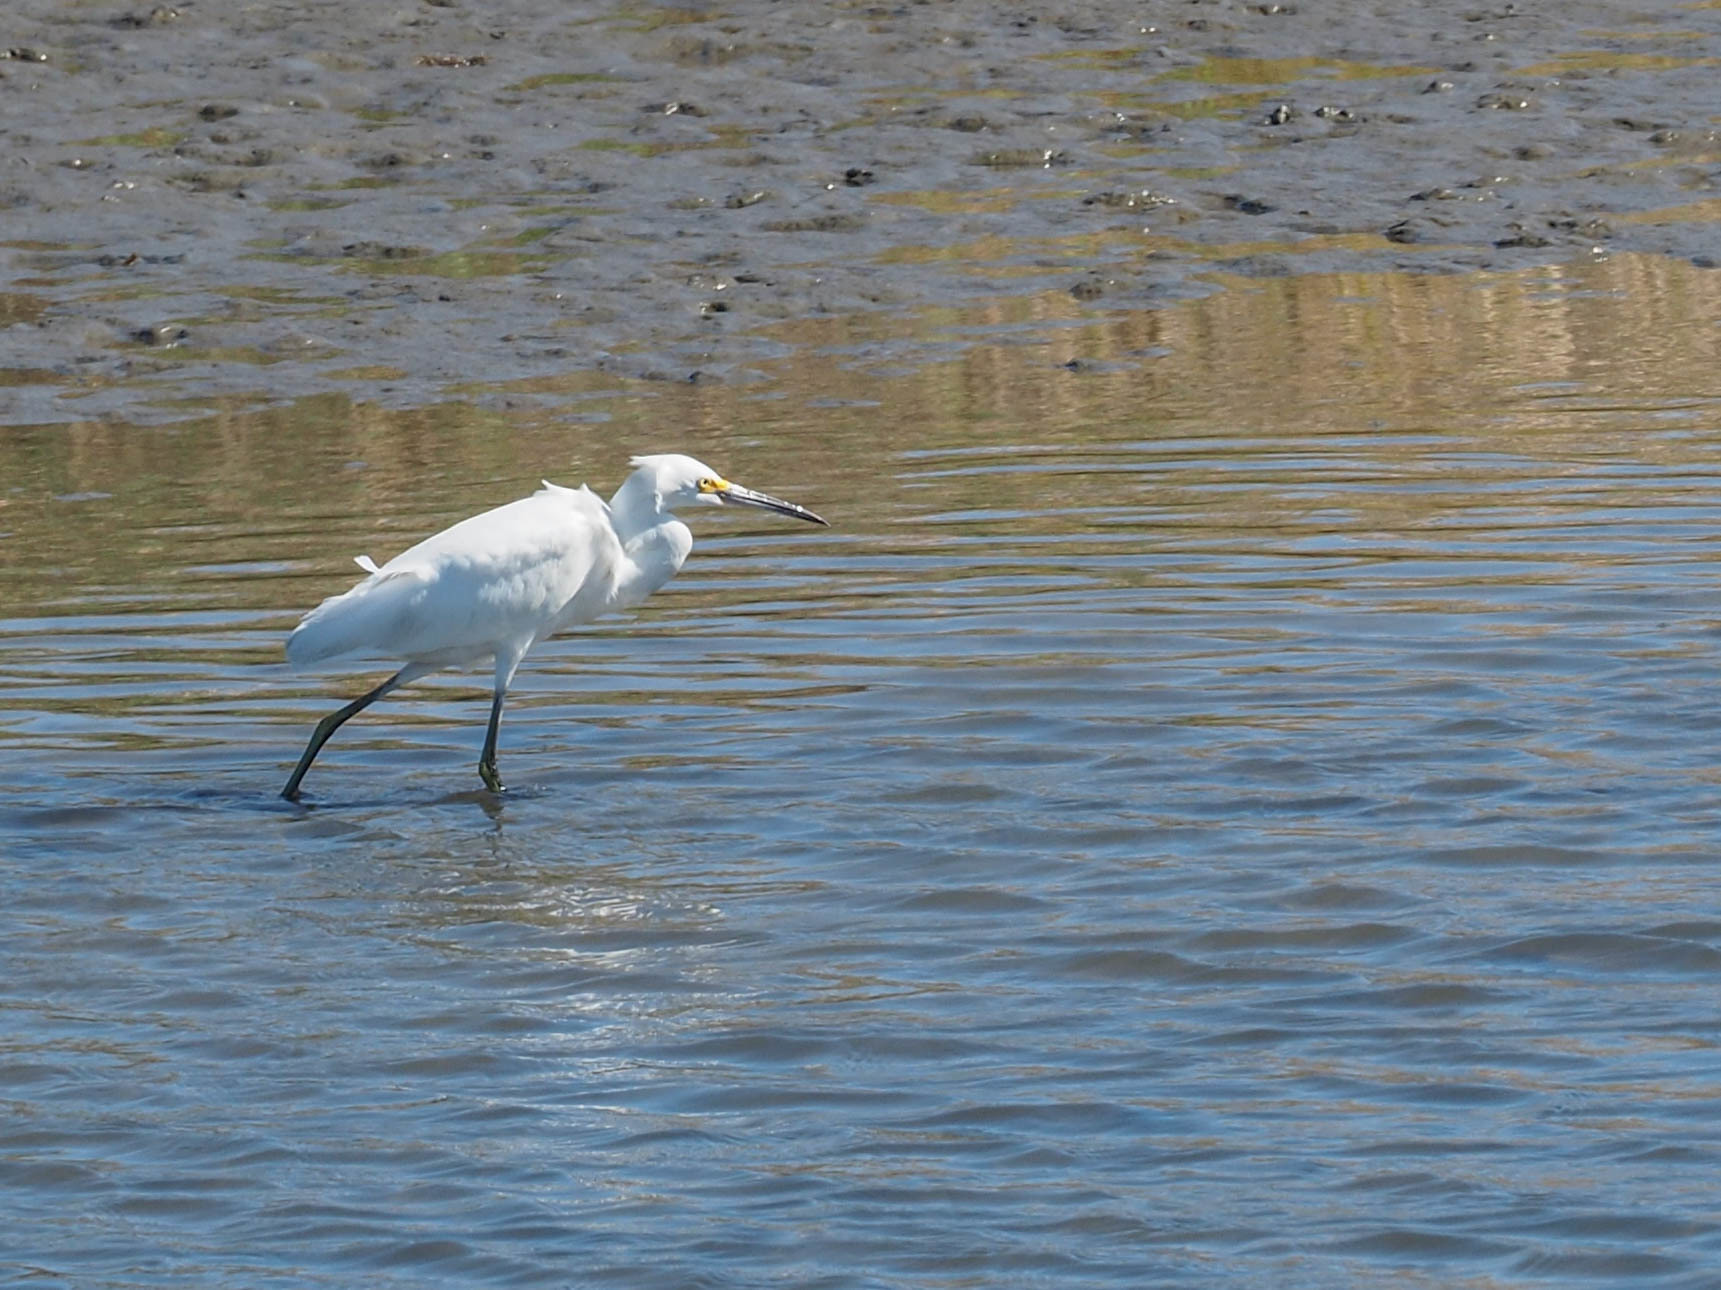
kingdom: Animalia
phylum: Chordata
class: Aves
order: Pelecaniformes
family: Ardeidae
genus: Egretta
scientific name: Egretta thula
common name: Snowy egret
